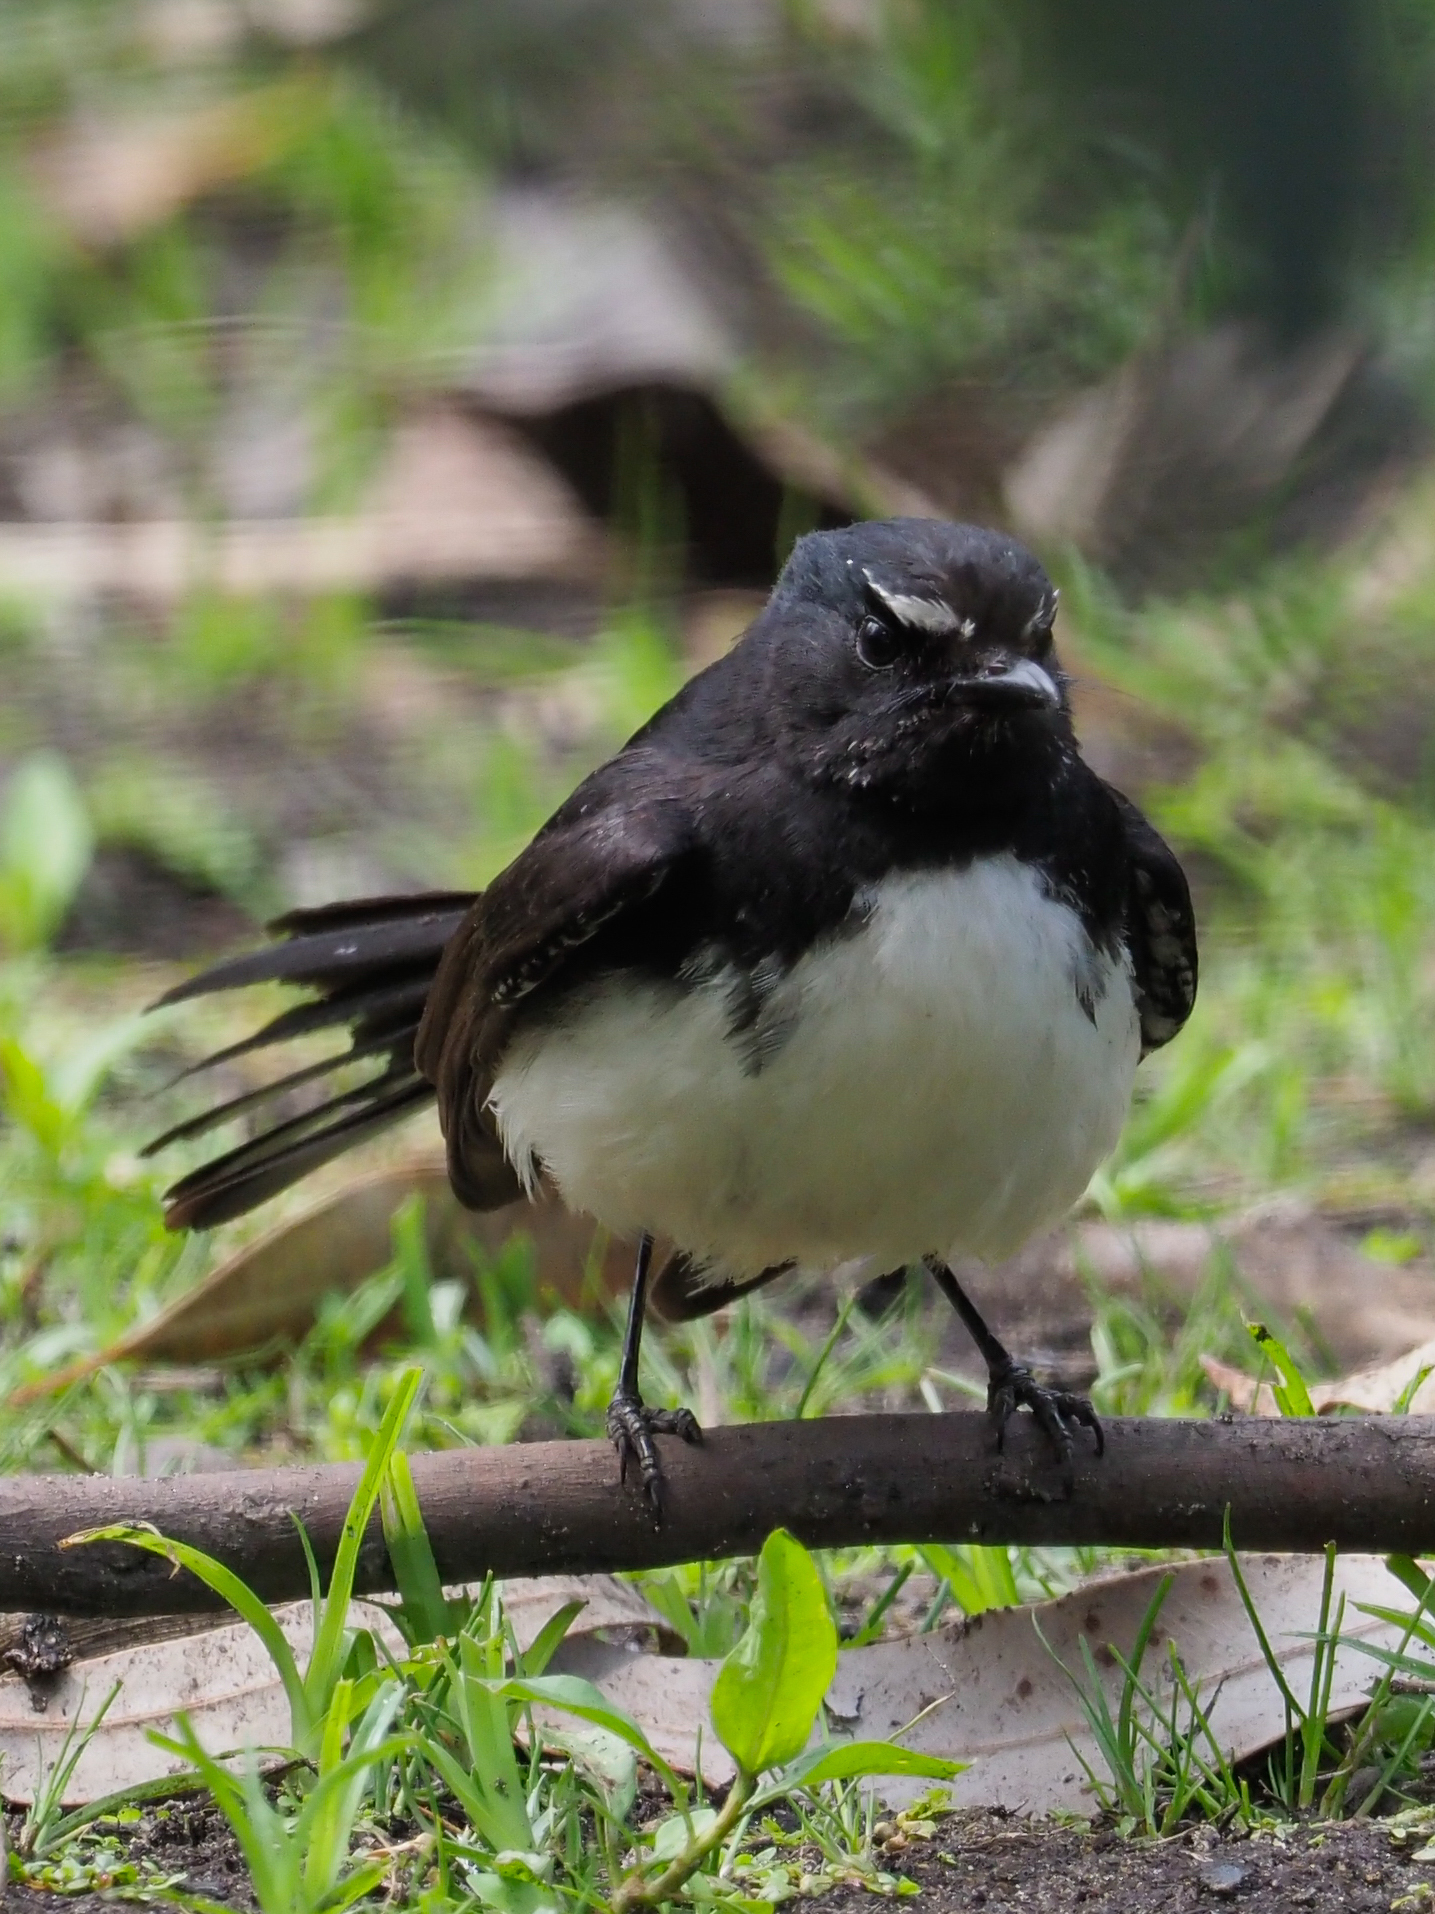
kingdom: Animalia
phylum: Chordata
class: Aves
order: Passeriformes
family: Rhipiduridae
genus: Rhipidura
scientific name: Rhipidura leucophrys
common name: Willie wagtail
